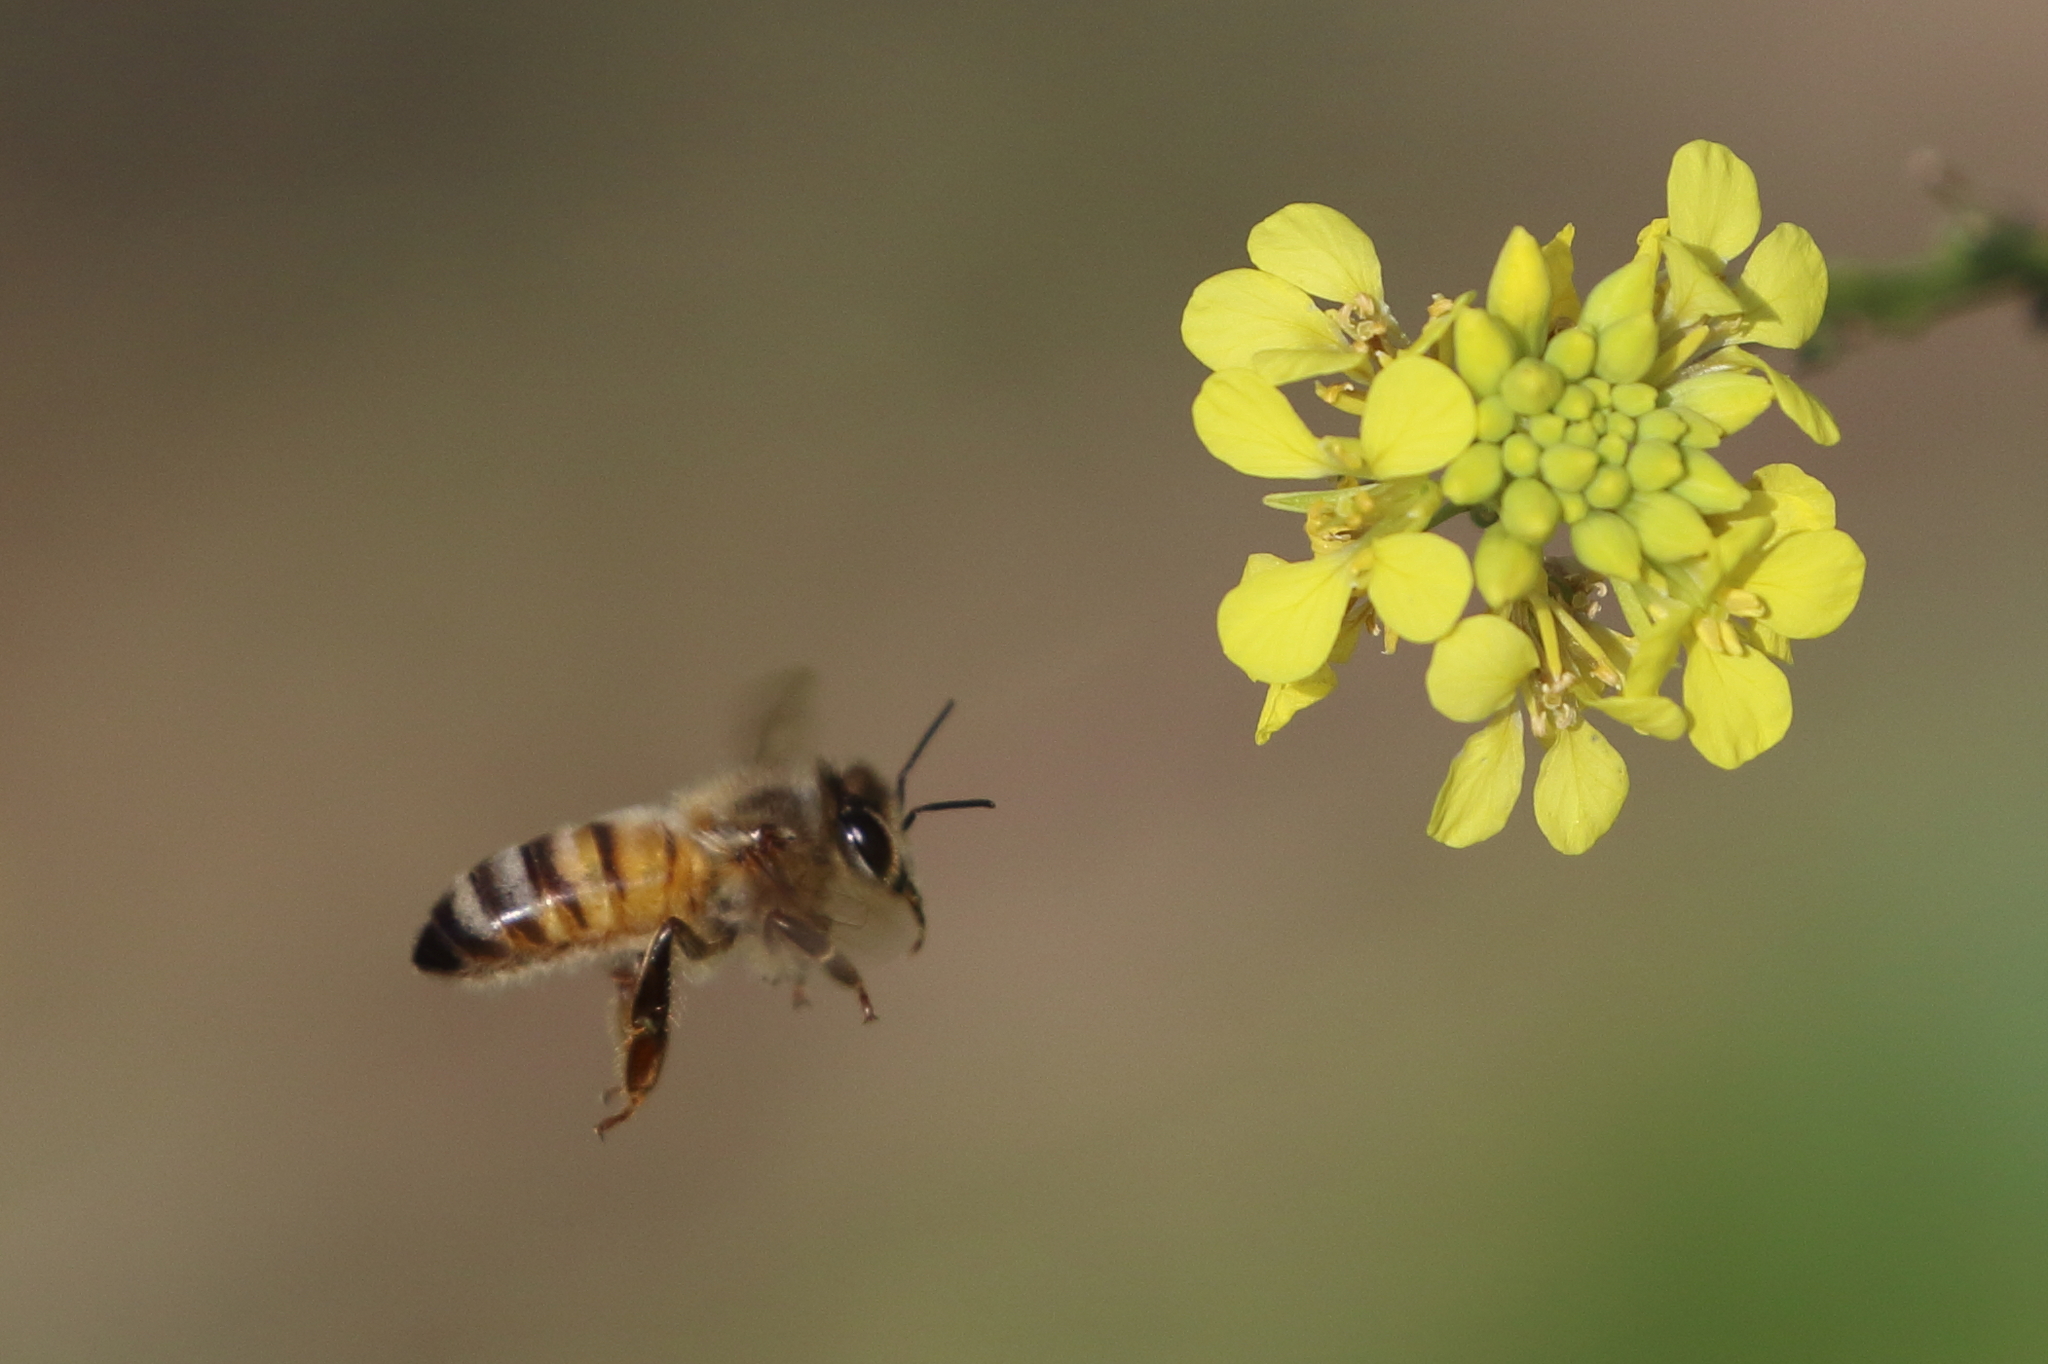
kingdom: Animalia
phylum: Arthropoda
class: Insecta
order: Hymenoptera
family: Apidae
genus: Apis
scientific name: Apis mellifera
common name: Honey bee
